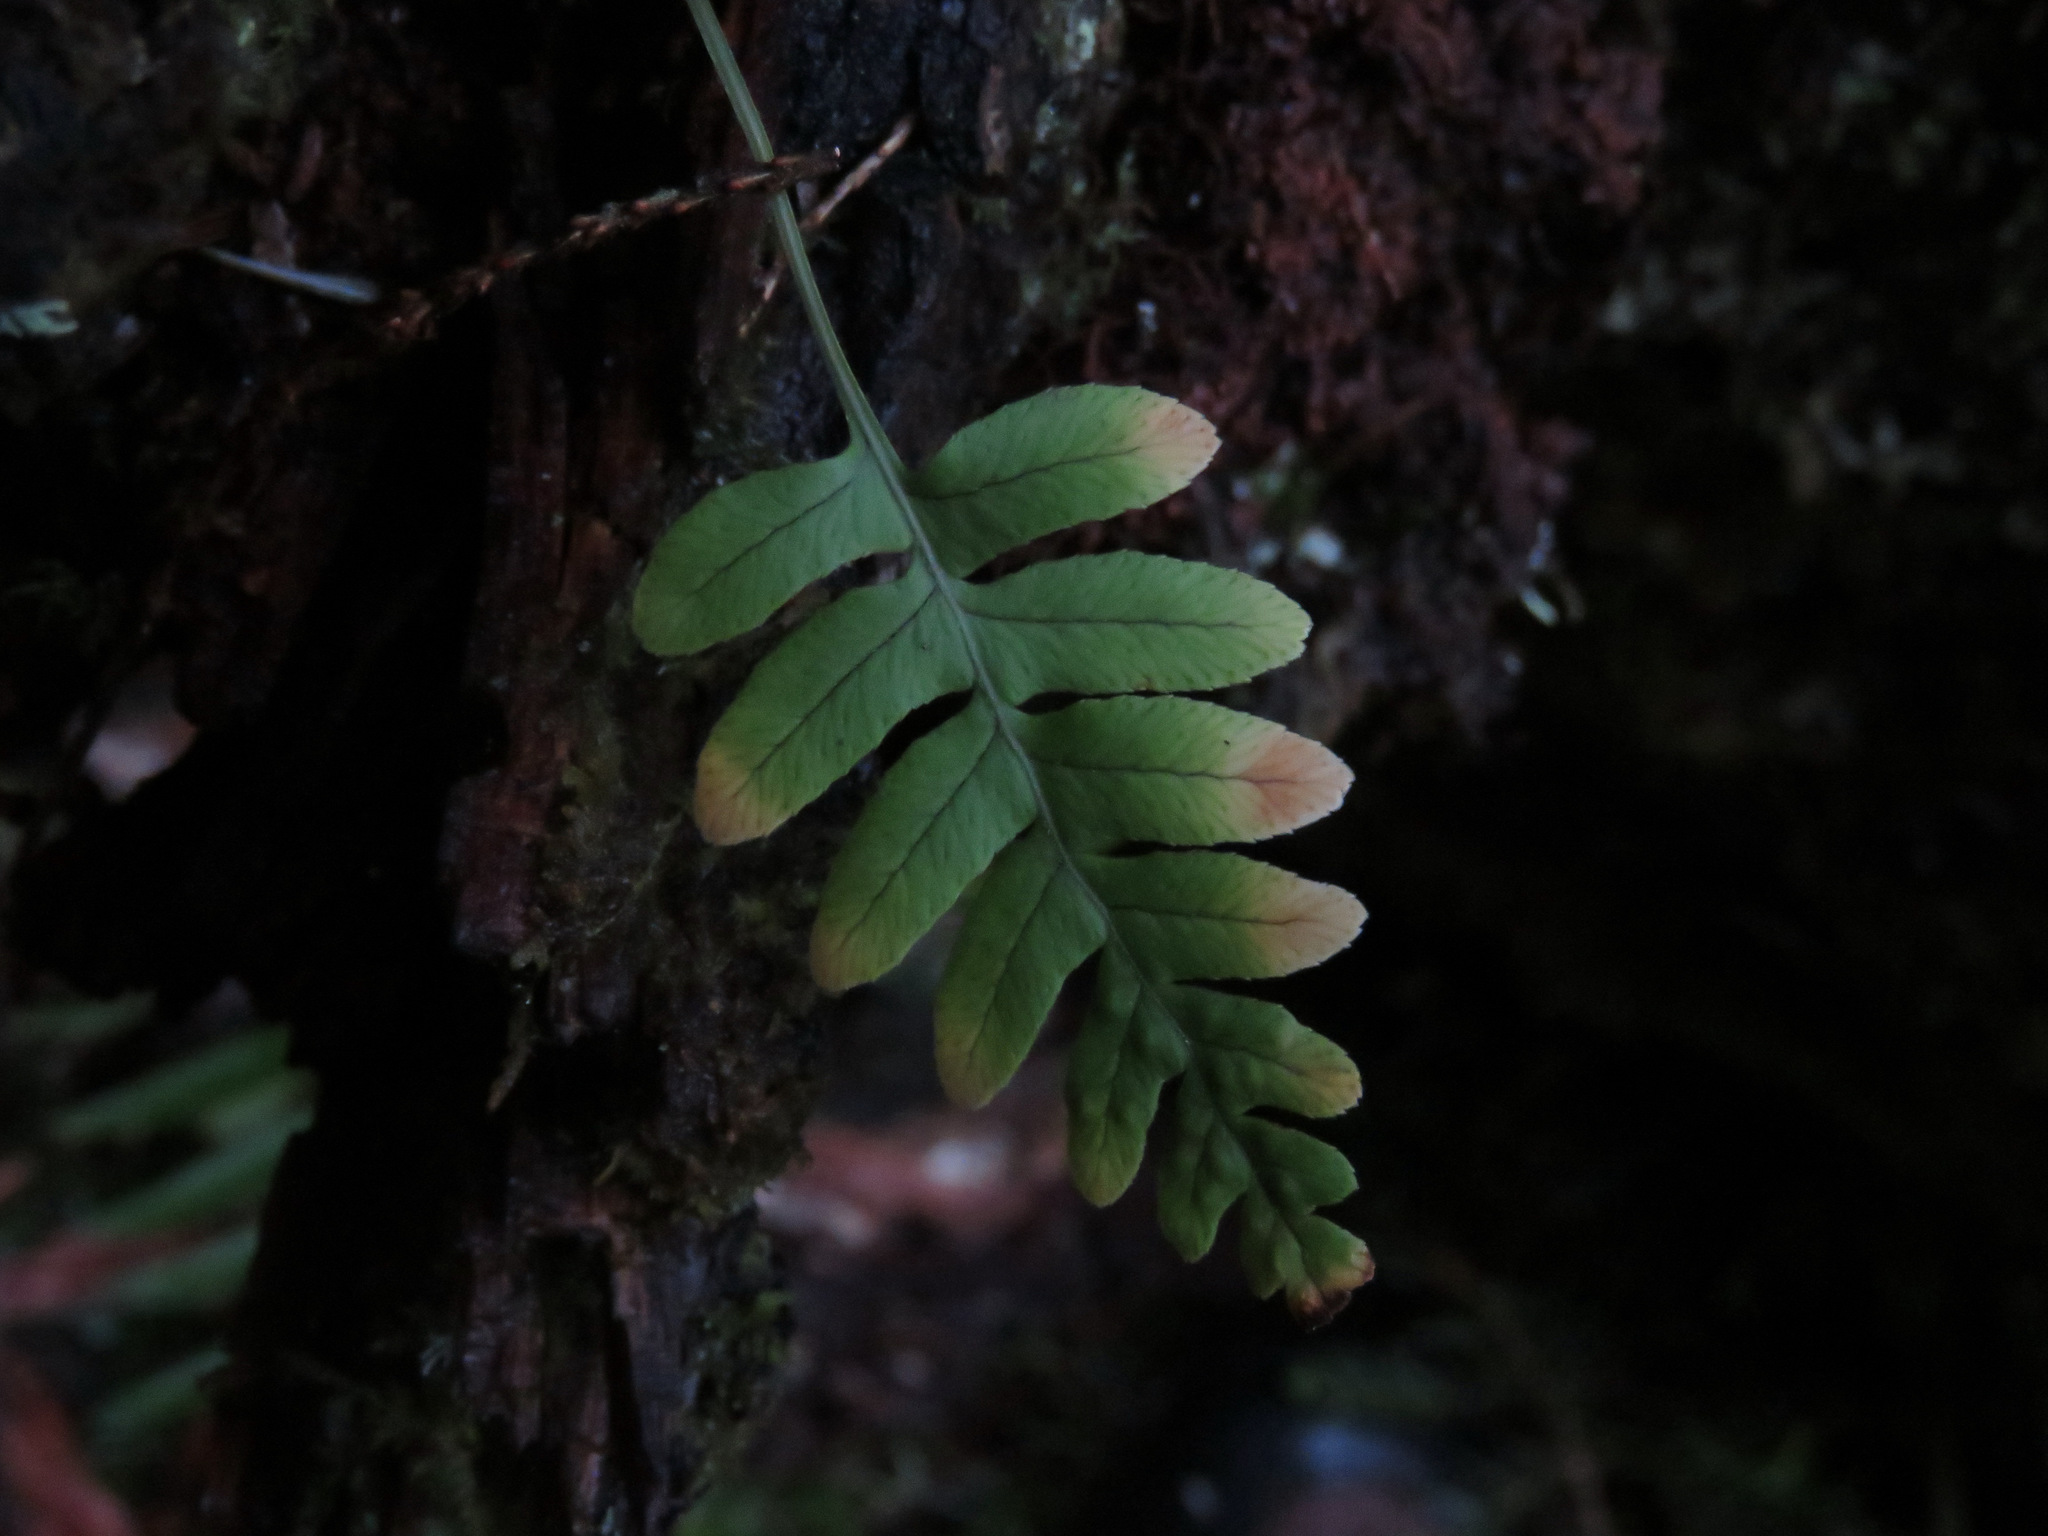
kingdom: Plantae
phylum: Tracheophyta
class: Polypodiopsida
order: Polypodiales
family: Polypodiaceae
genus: Polypodium
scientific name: Polypodium glycyrrhiza
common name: Licorice fern
